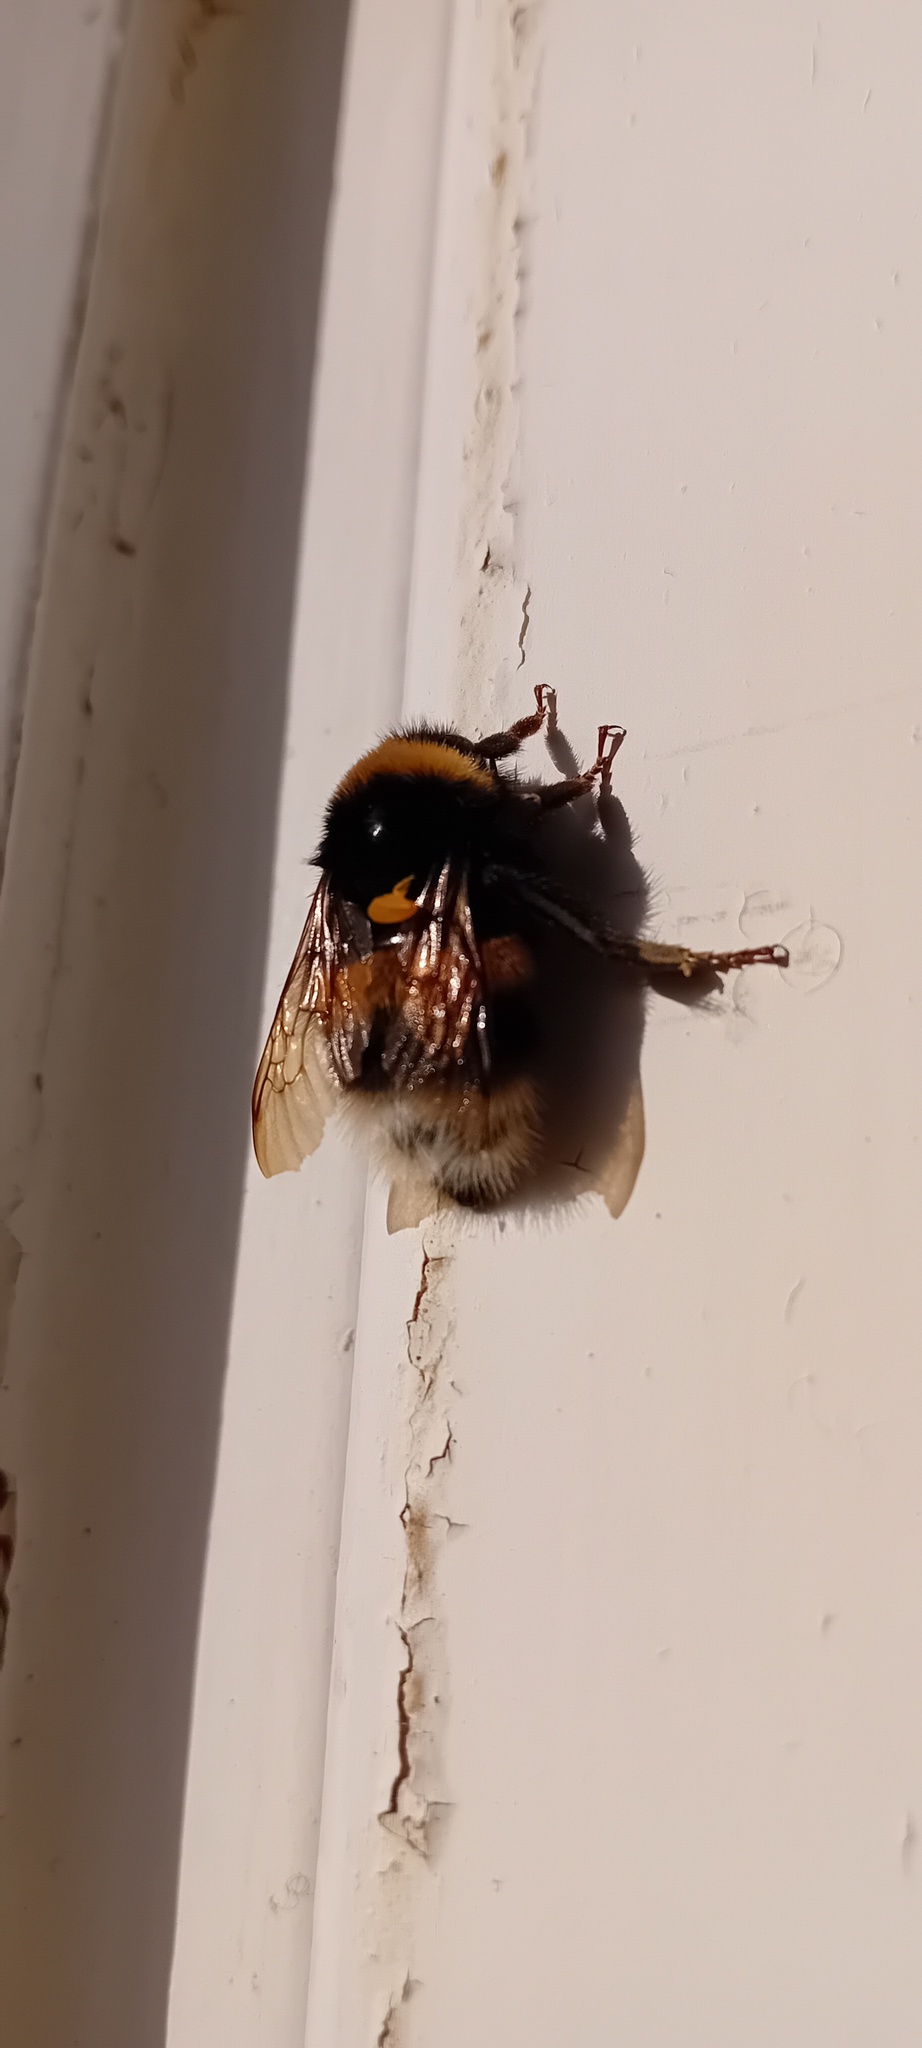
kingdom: Animalia
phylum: Arthropoda
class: Insecta
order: Hymenoptera
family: Apidae
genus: Bombus
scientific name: Bombus
